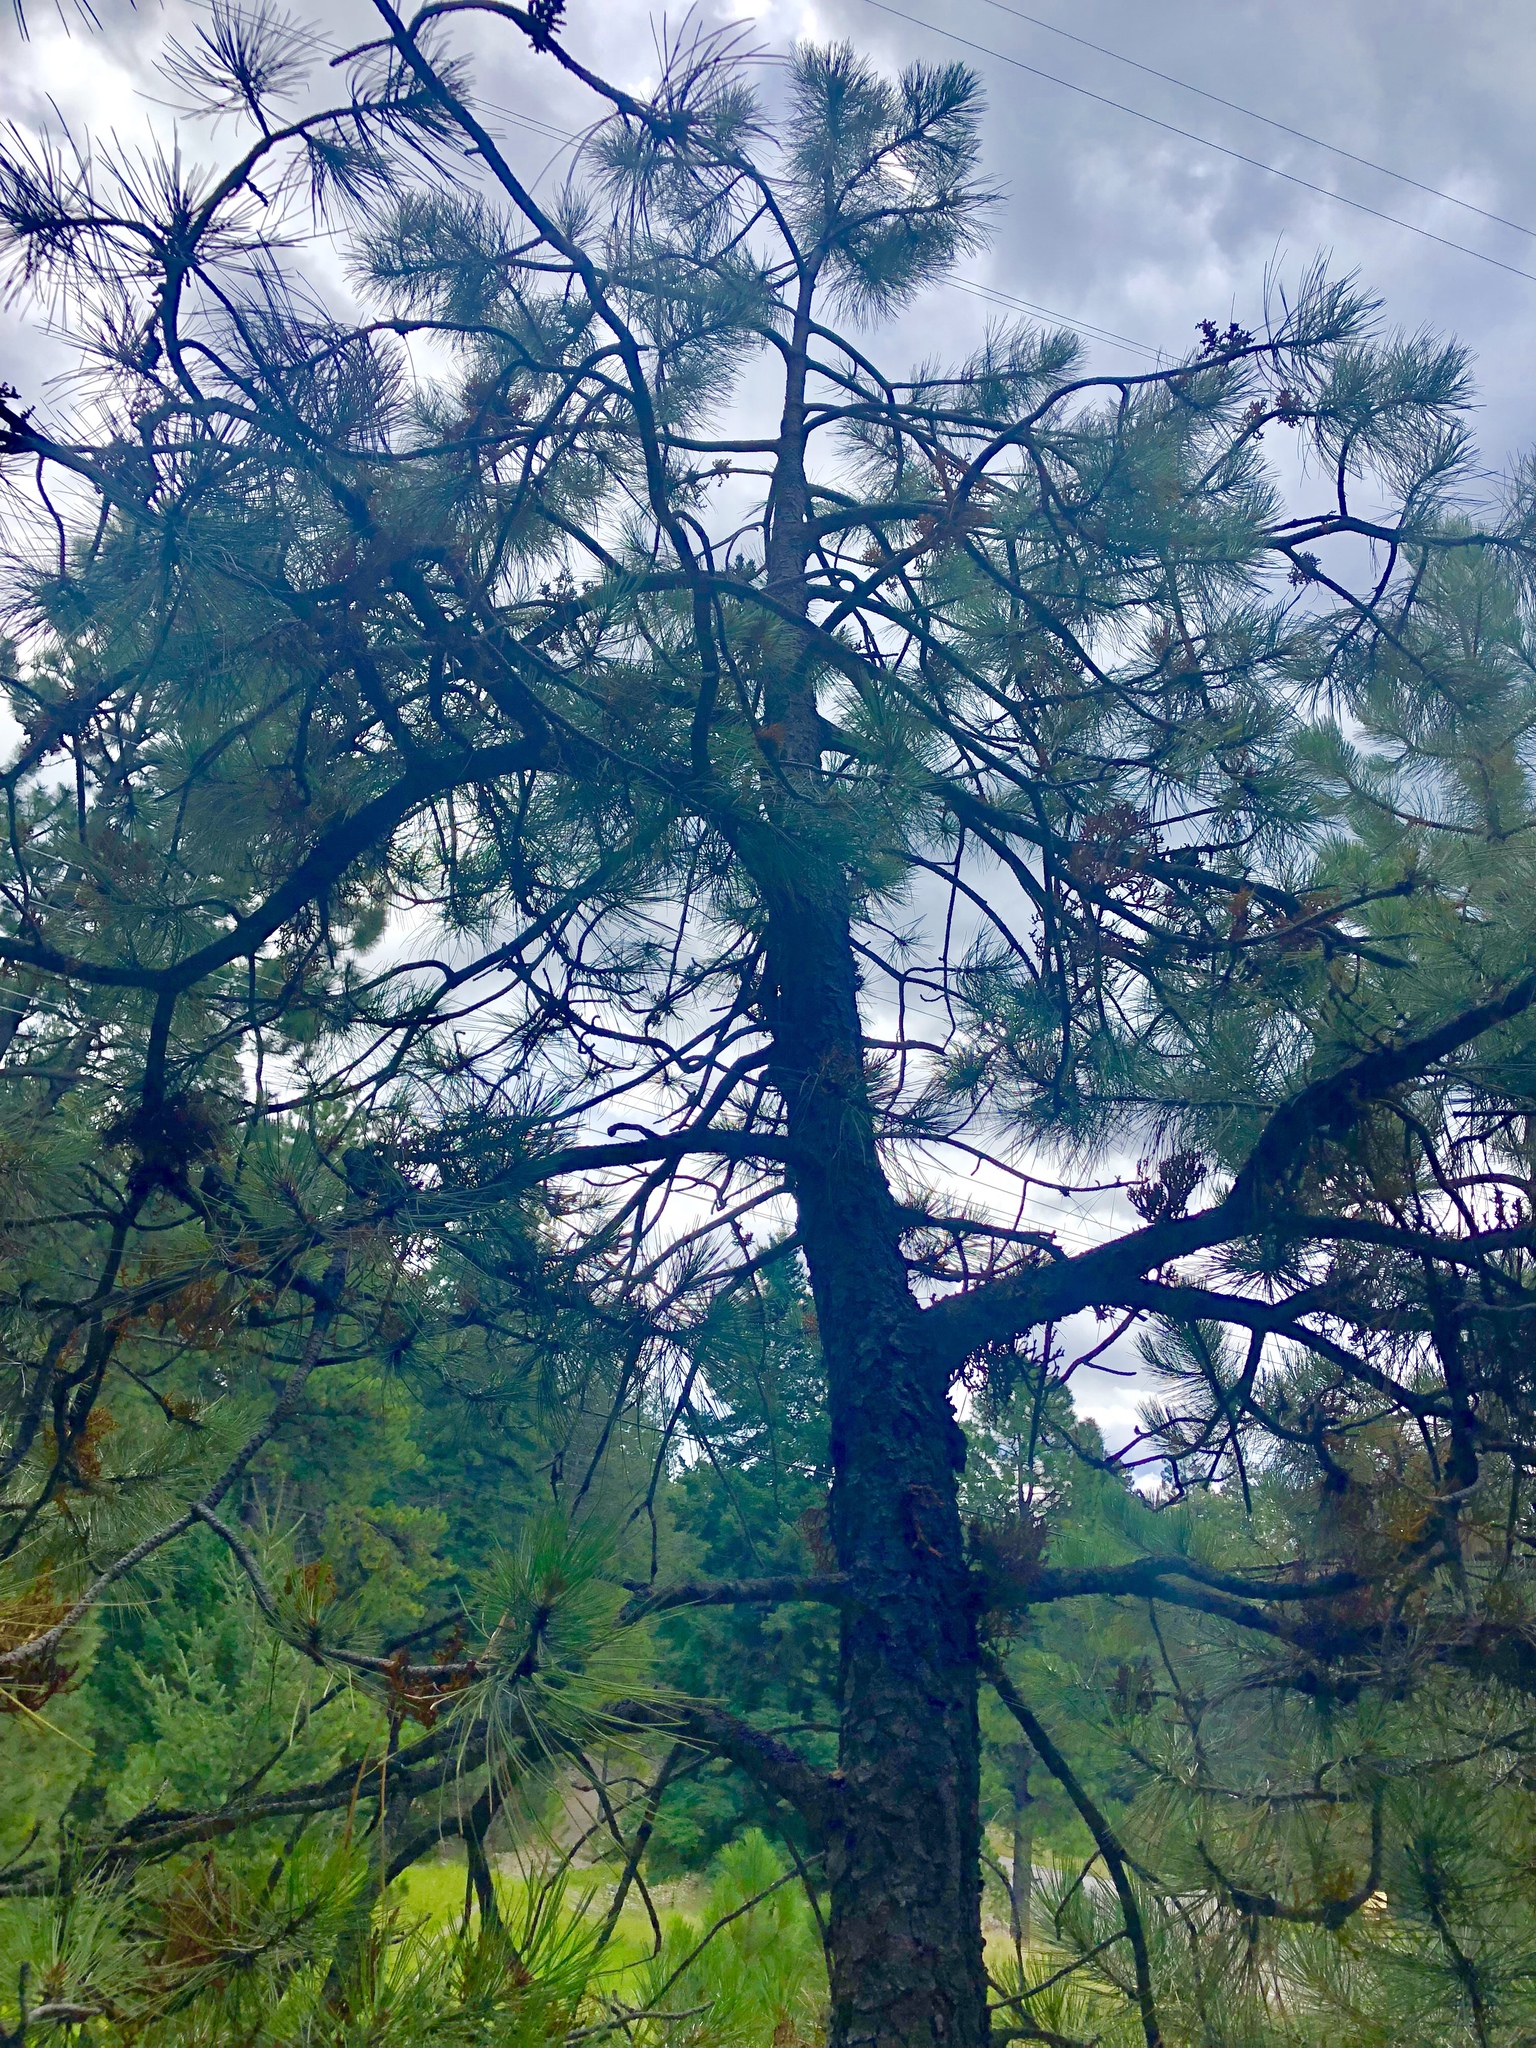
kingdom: Plantae
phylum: Tracheophyta
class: Pinopsida
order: Pinales
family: Pinaceae
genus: Pinus
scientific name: Pinus ponderosa
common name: Western yellow-pine
